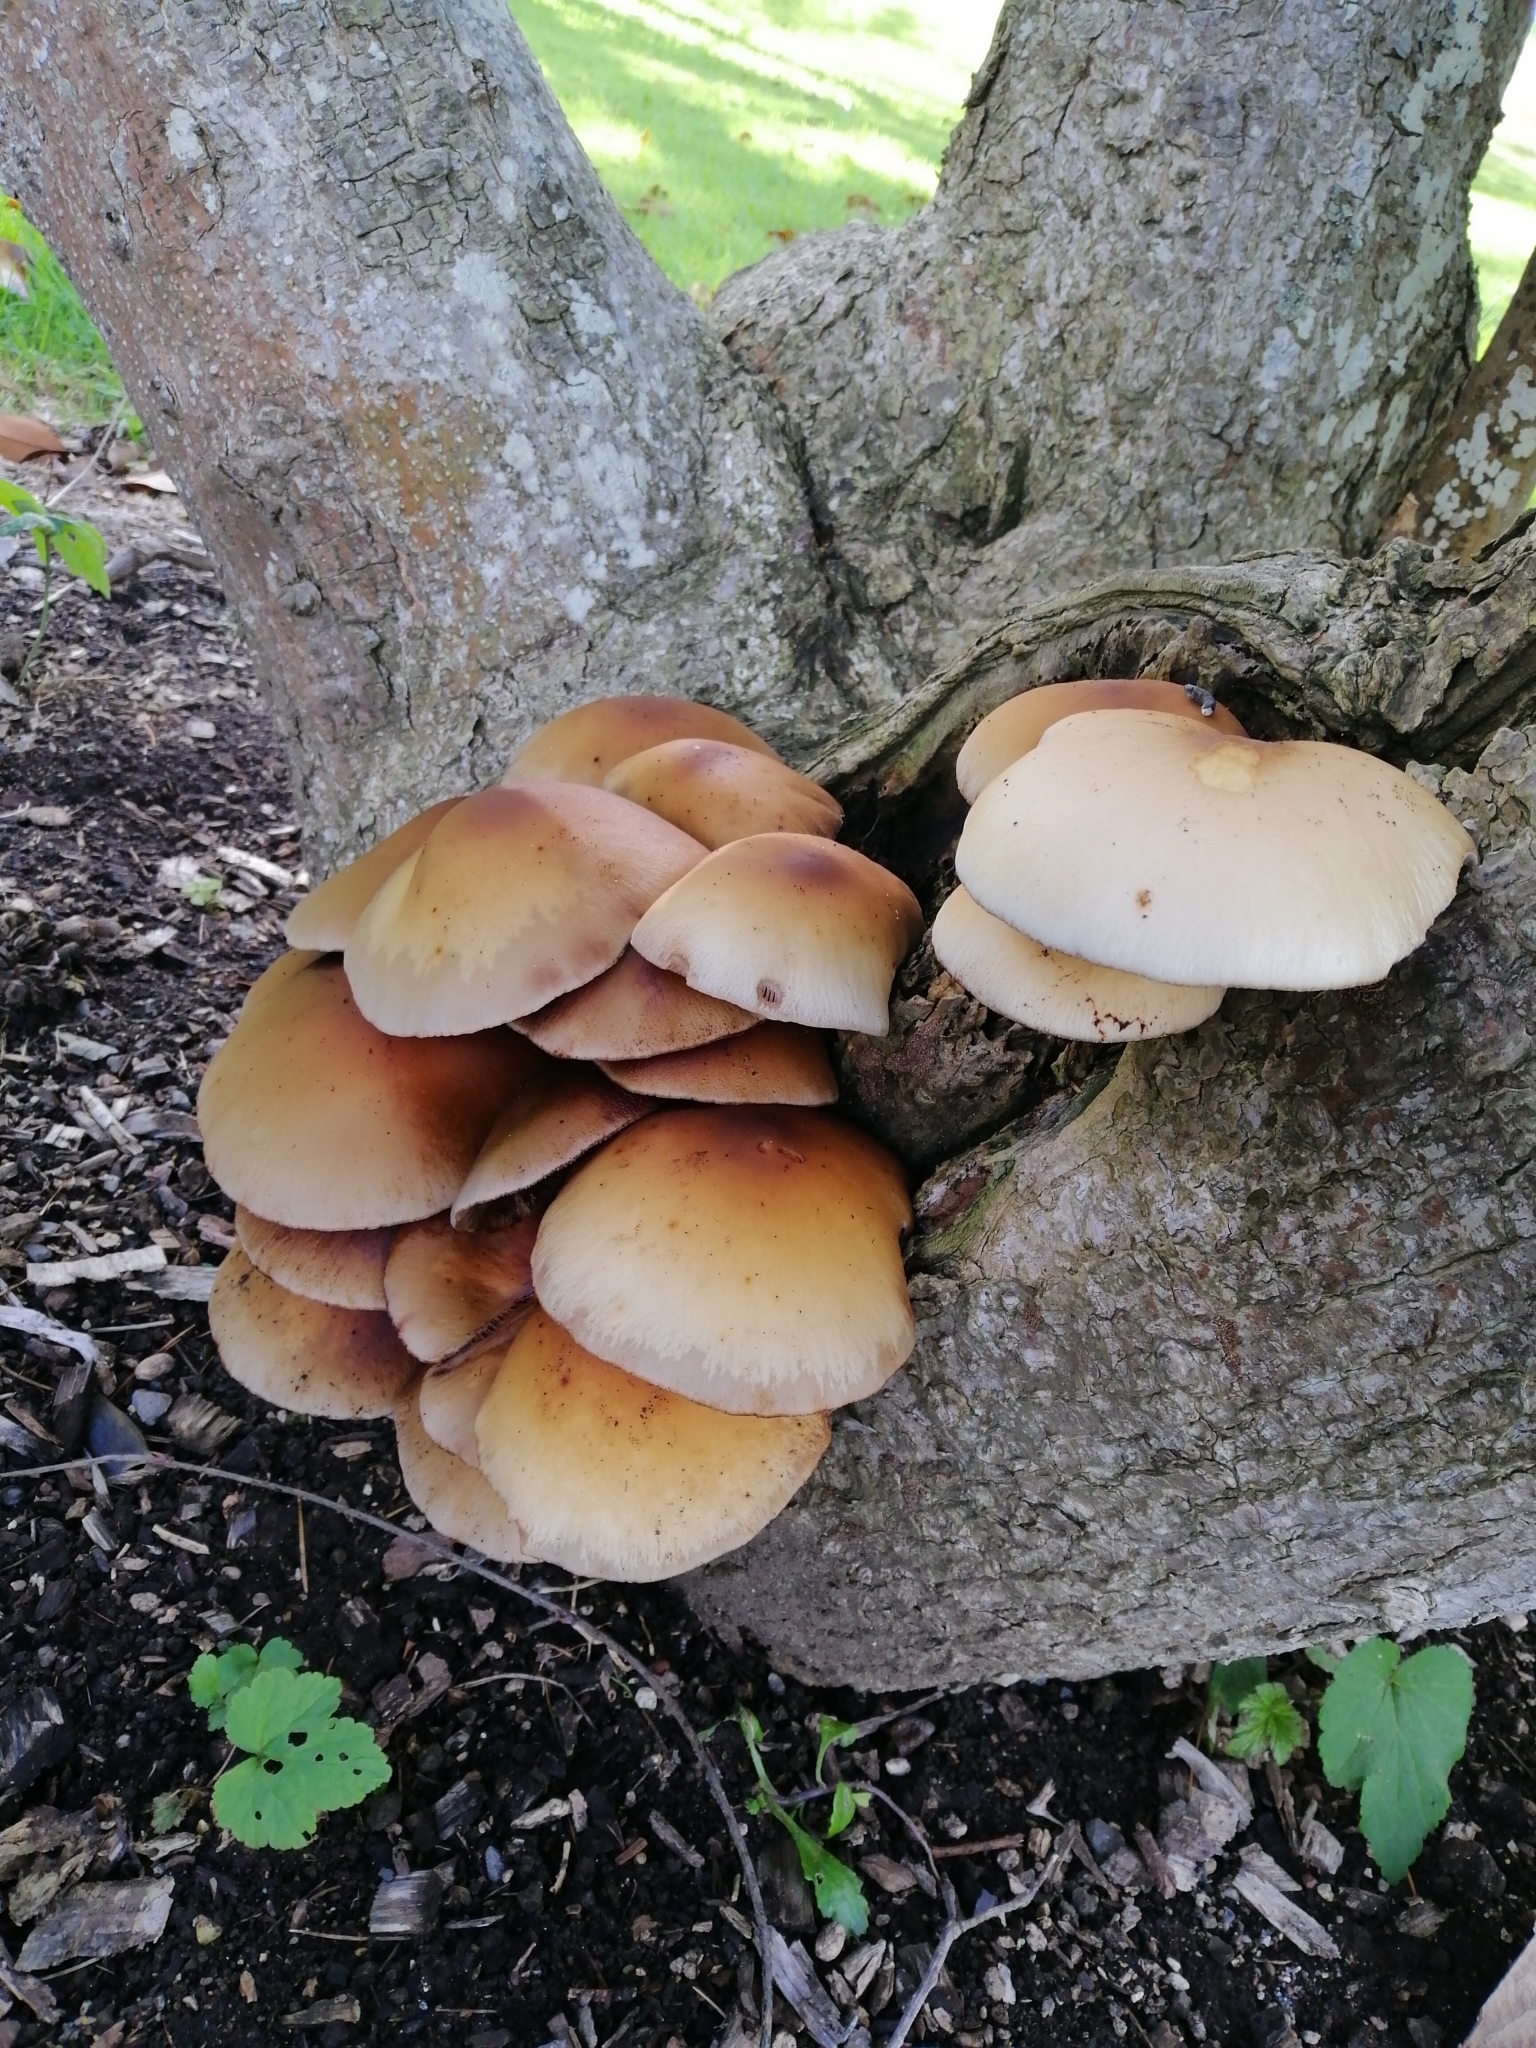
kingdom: Fungi
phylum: Basidiomycota
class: Agaricomycetes
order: Agaricales
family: Tubariaceae
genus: Cyclocybe
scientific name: Cyclocybe parasitica
